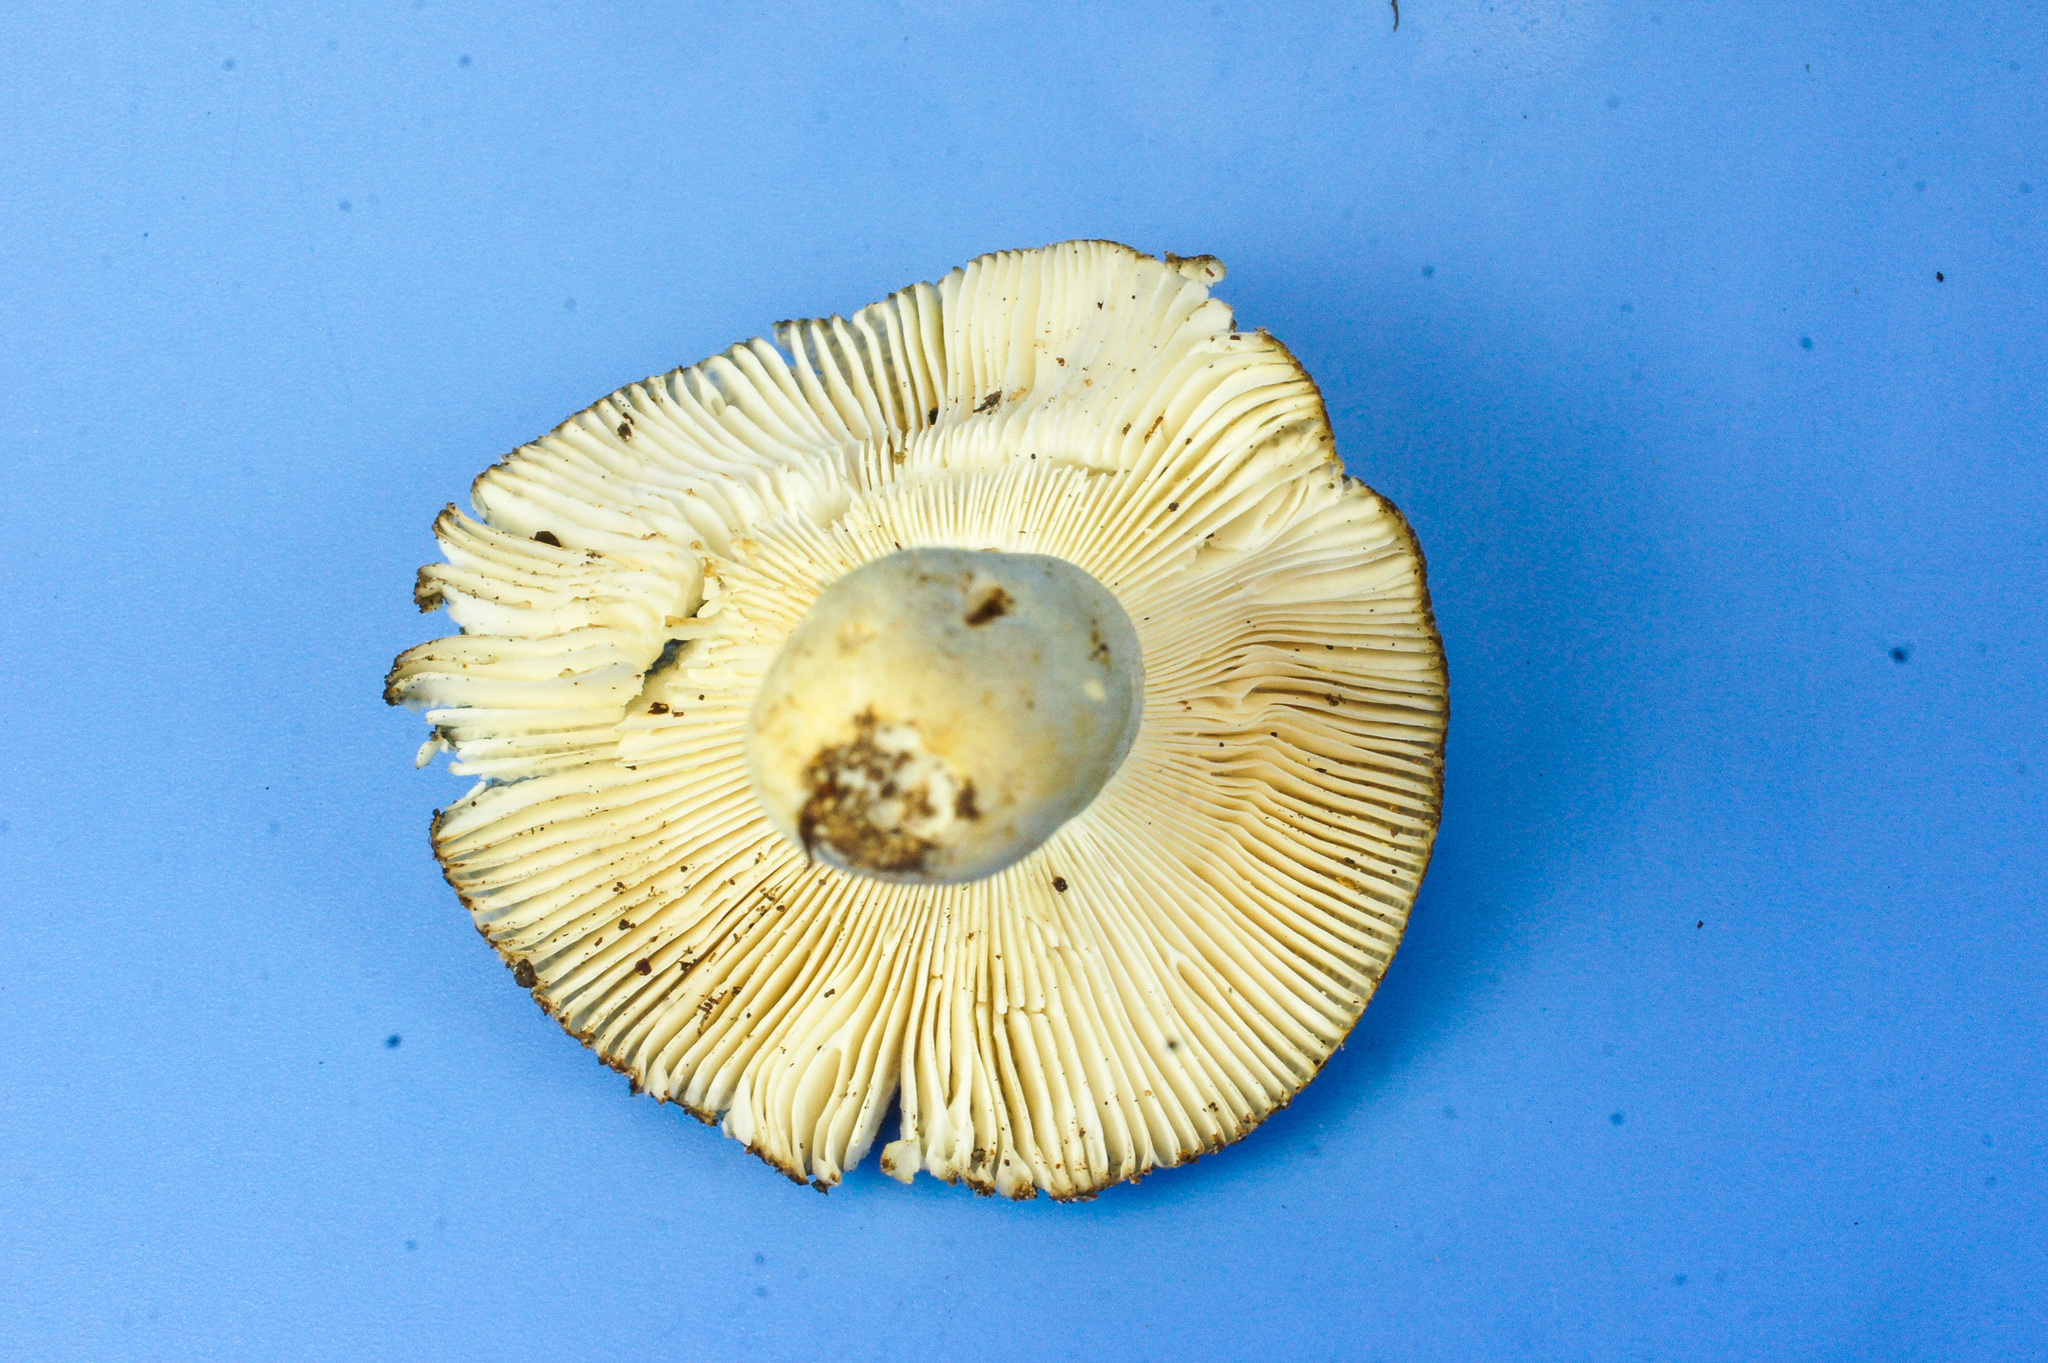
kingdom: Fungi
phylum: Basidiomycota
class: Agaricomycetes
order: Russulales
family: Russulaceae
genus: Russula
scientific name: Russula parvovirescens
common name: Blue-green cracking russula
